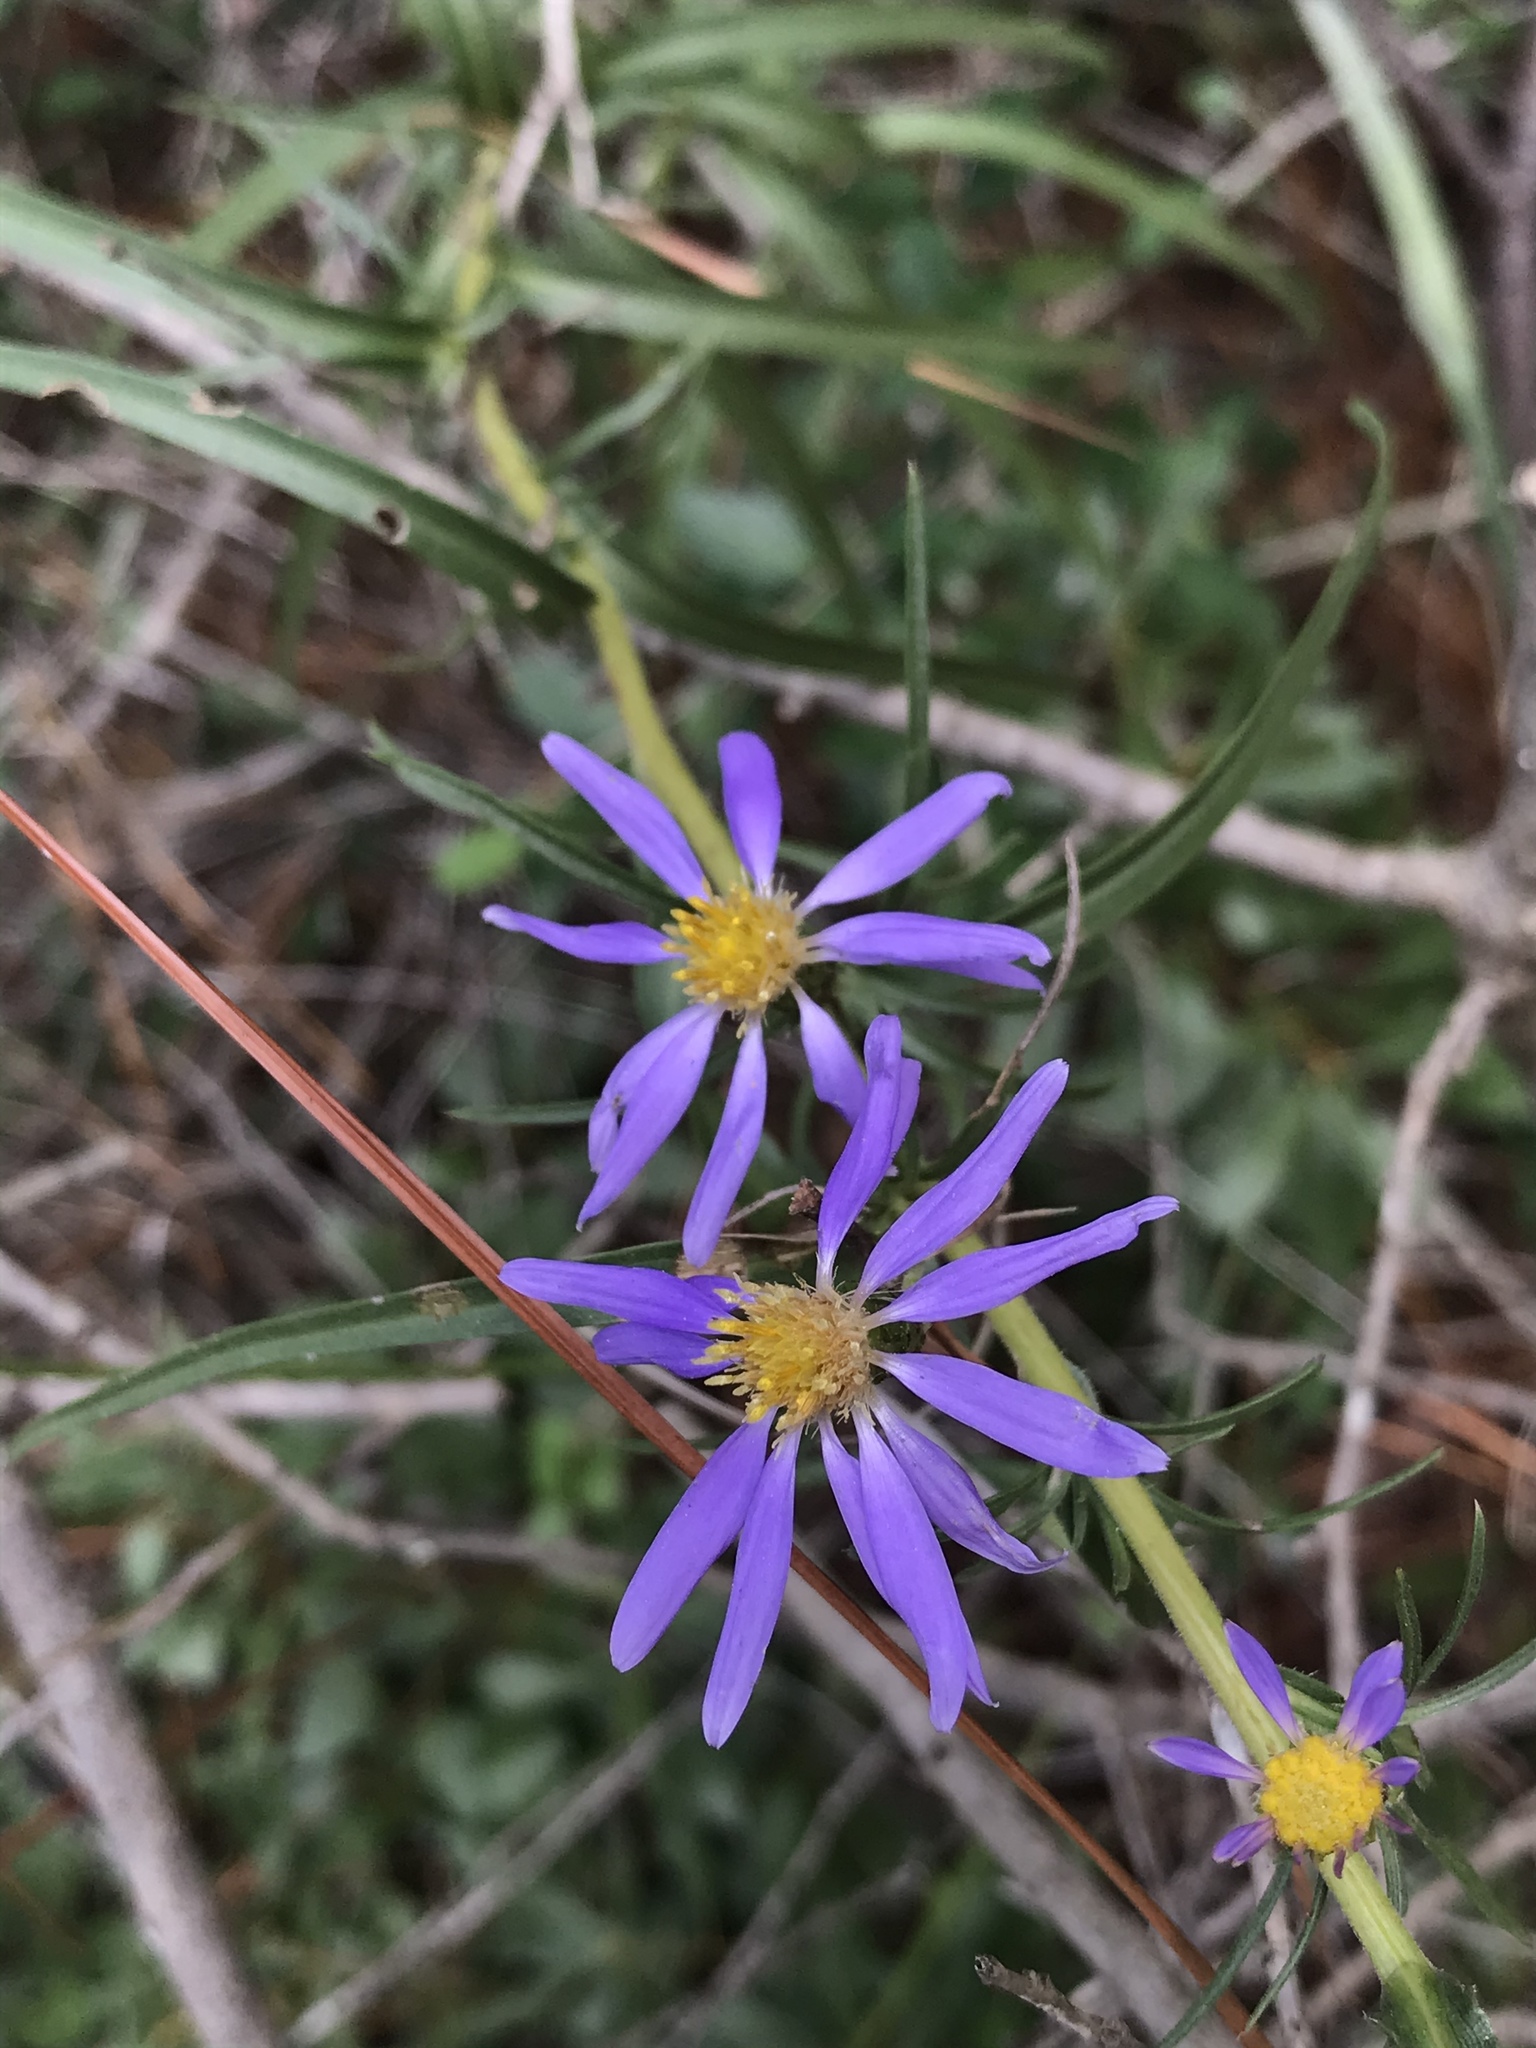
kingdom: Plantae
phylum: Tracheophyta
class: Magnoliopsida
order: Asterales
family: Asteraceae
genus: Eurybia
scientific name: Eurybia hemispherica
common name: Showy aster
